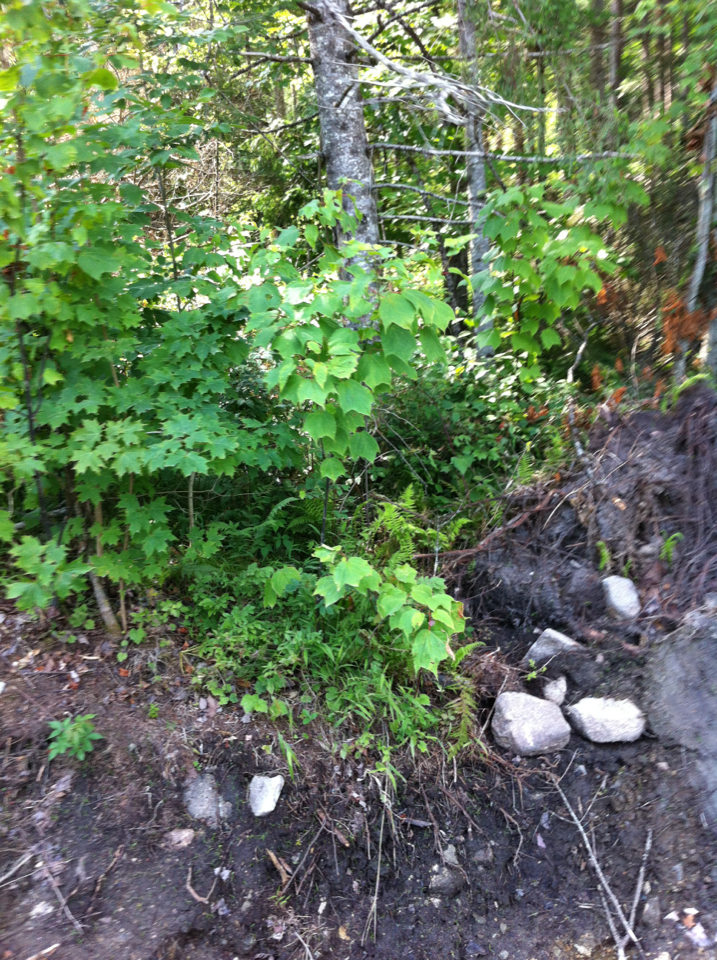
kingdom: Plantae
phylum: Tracheophyta
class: Magnoliopsida
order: Sapindales
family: Sapindaceae
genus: Acer
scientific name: Acer pensylvanicum
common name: Moosewood
